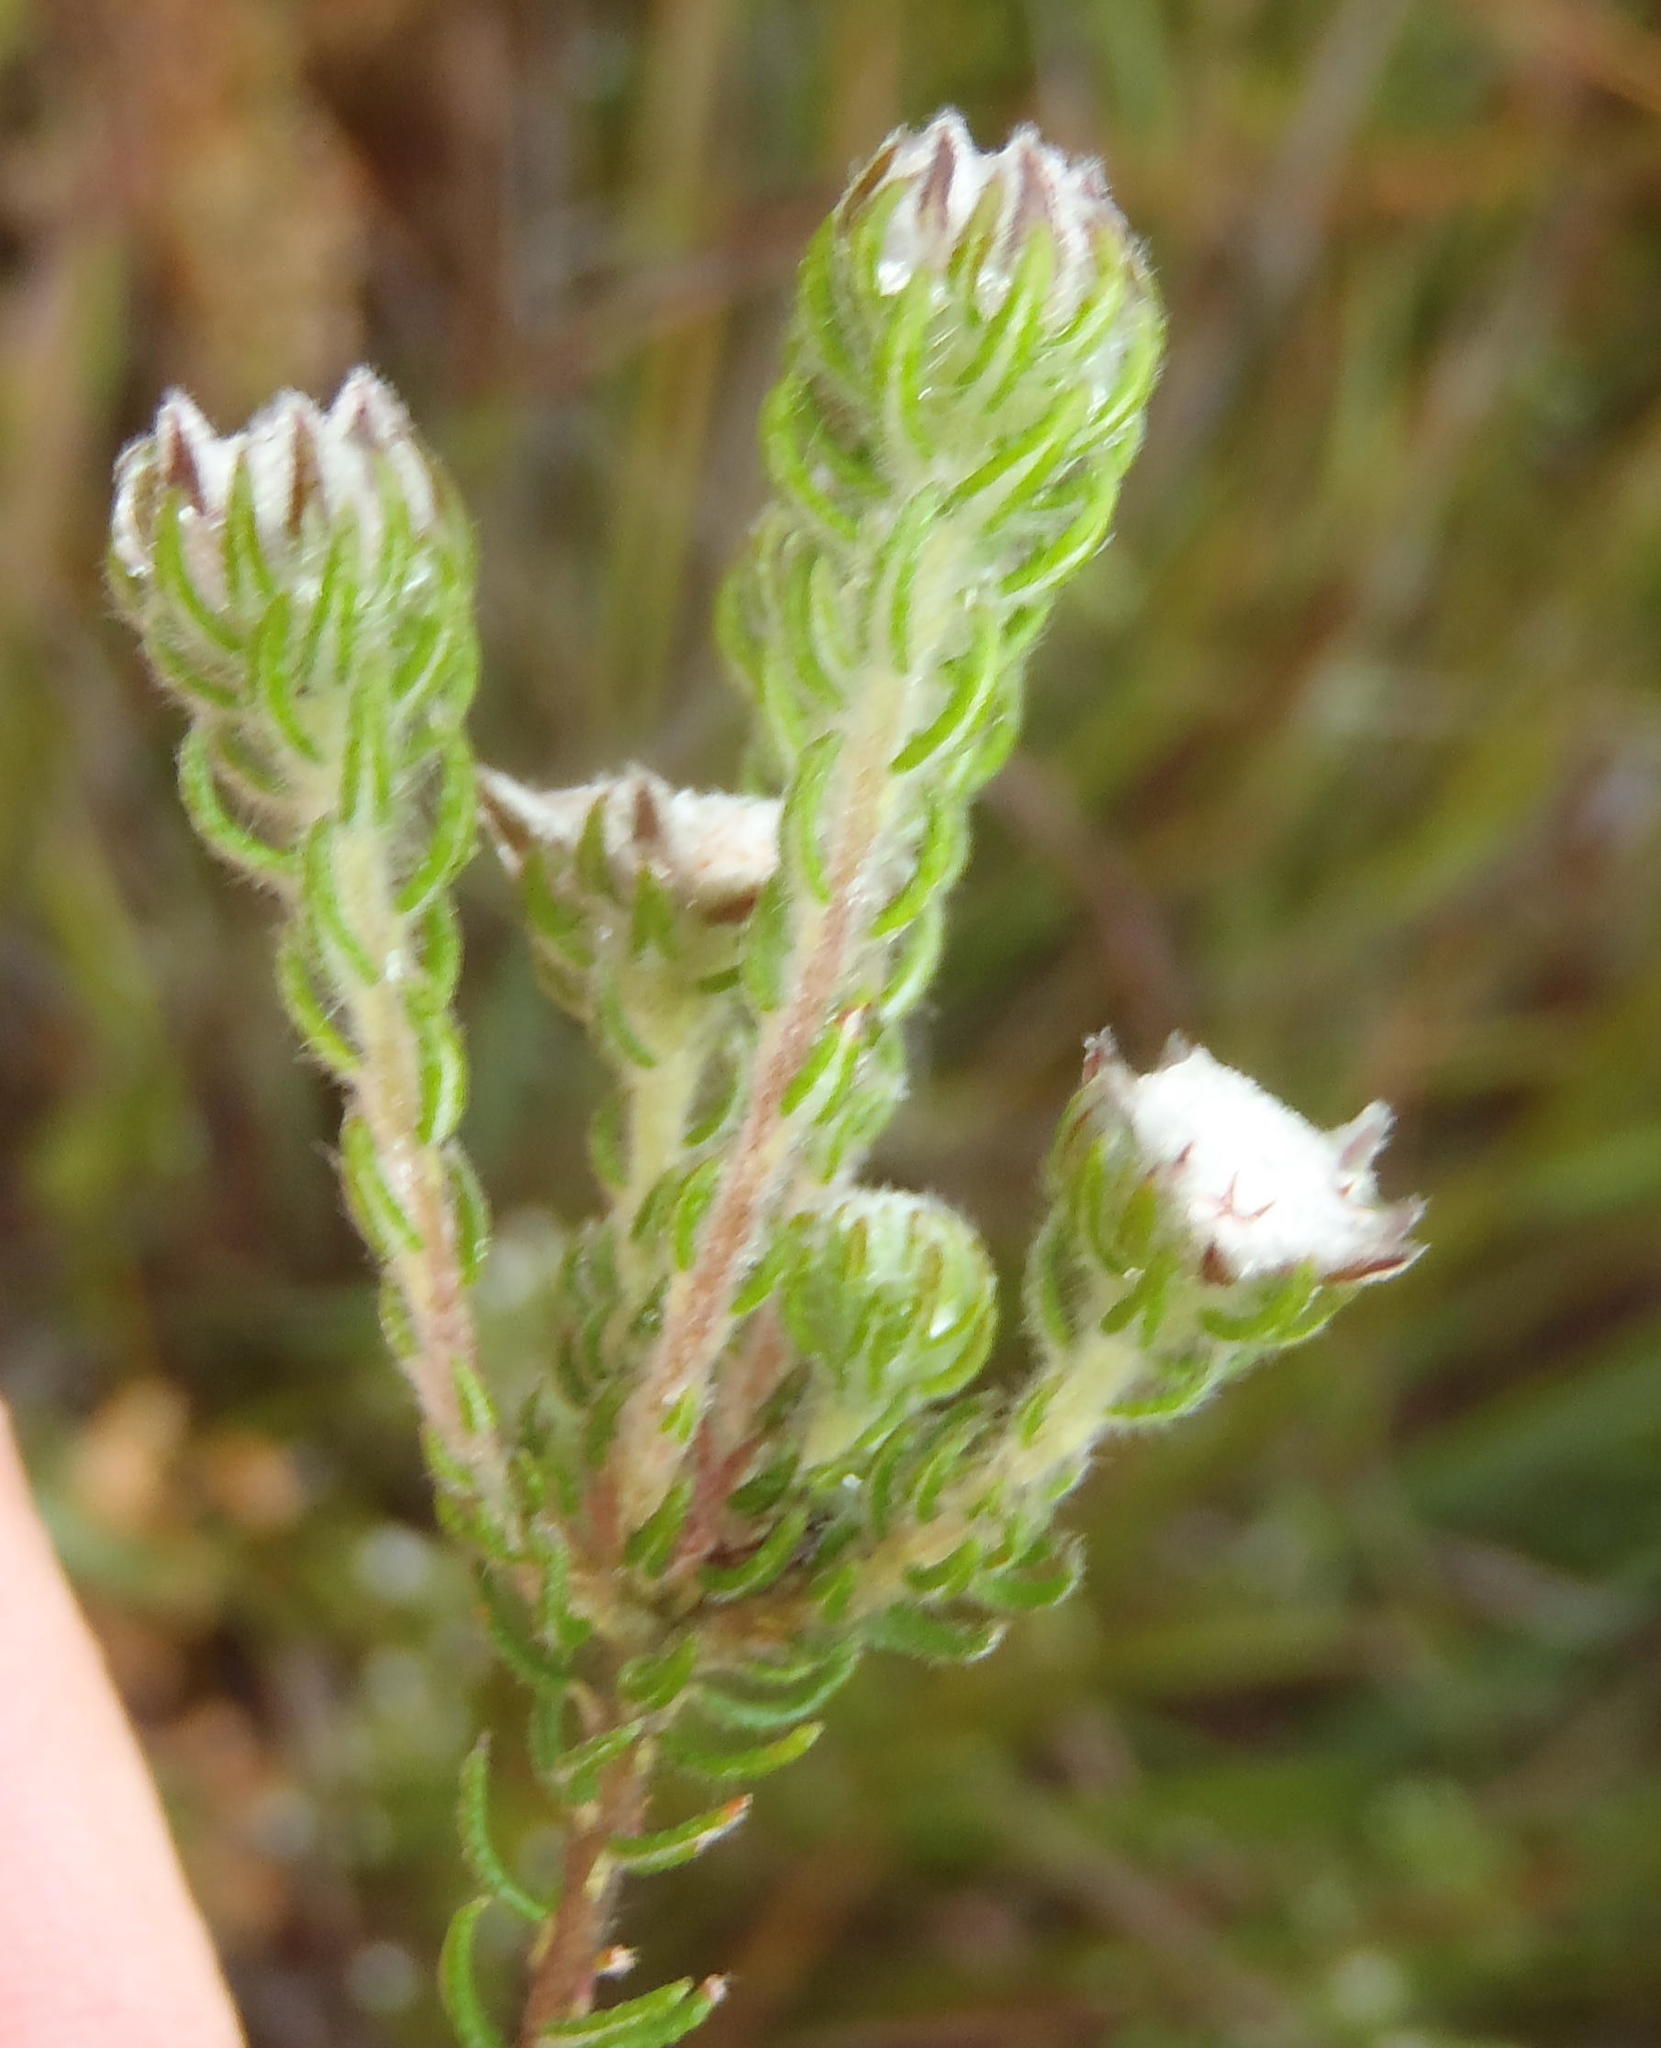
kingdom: Plantae
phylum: Tracheophyta
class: Magnoliopsida
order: Rosales
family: Rhamnaceae
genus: Phylica
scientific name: Phylica keetii
